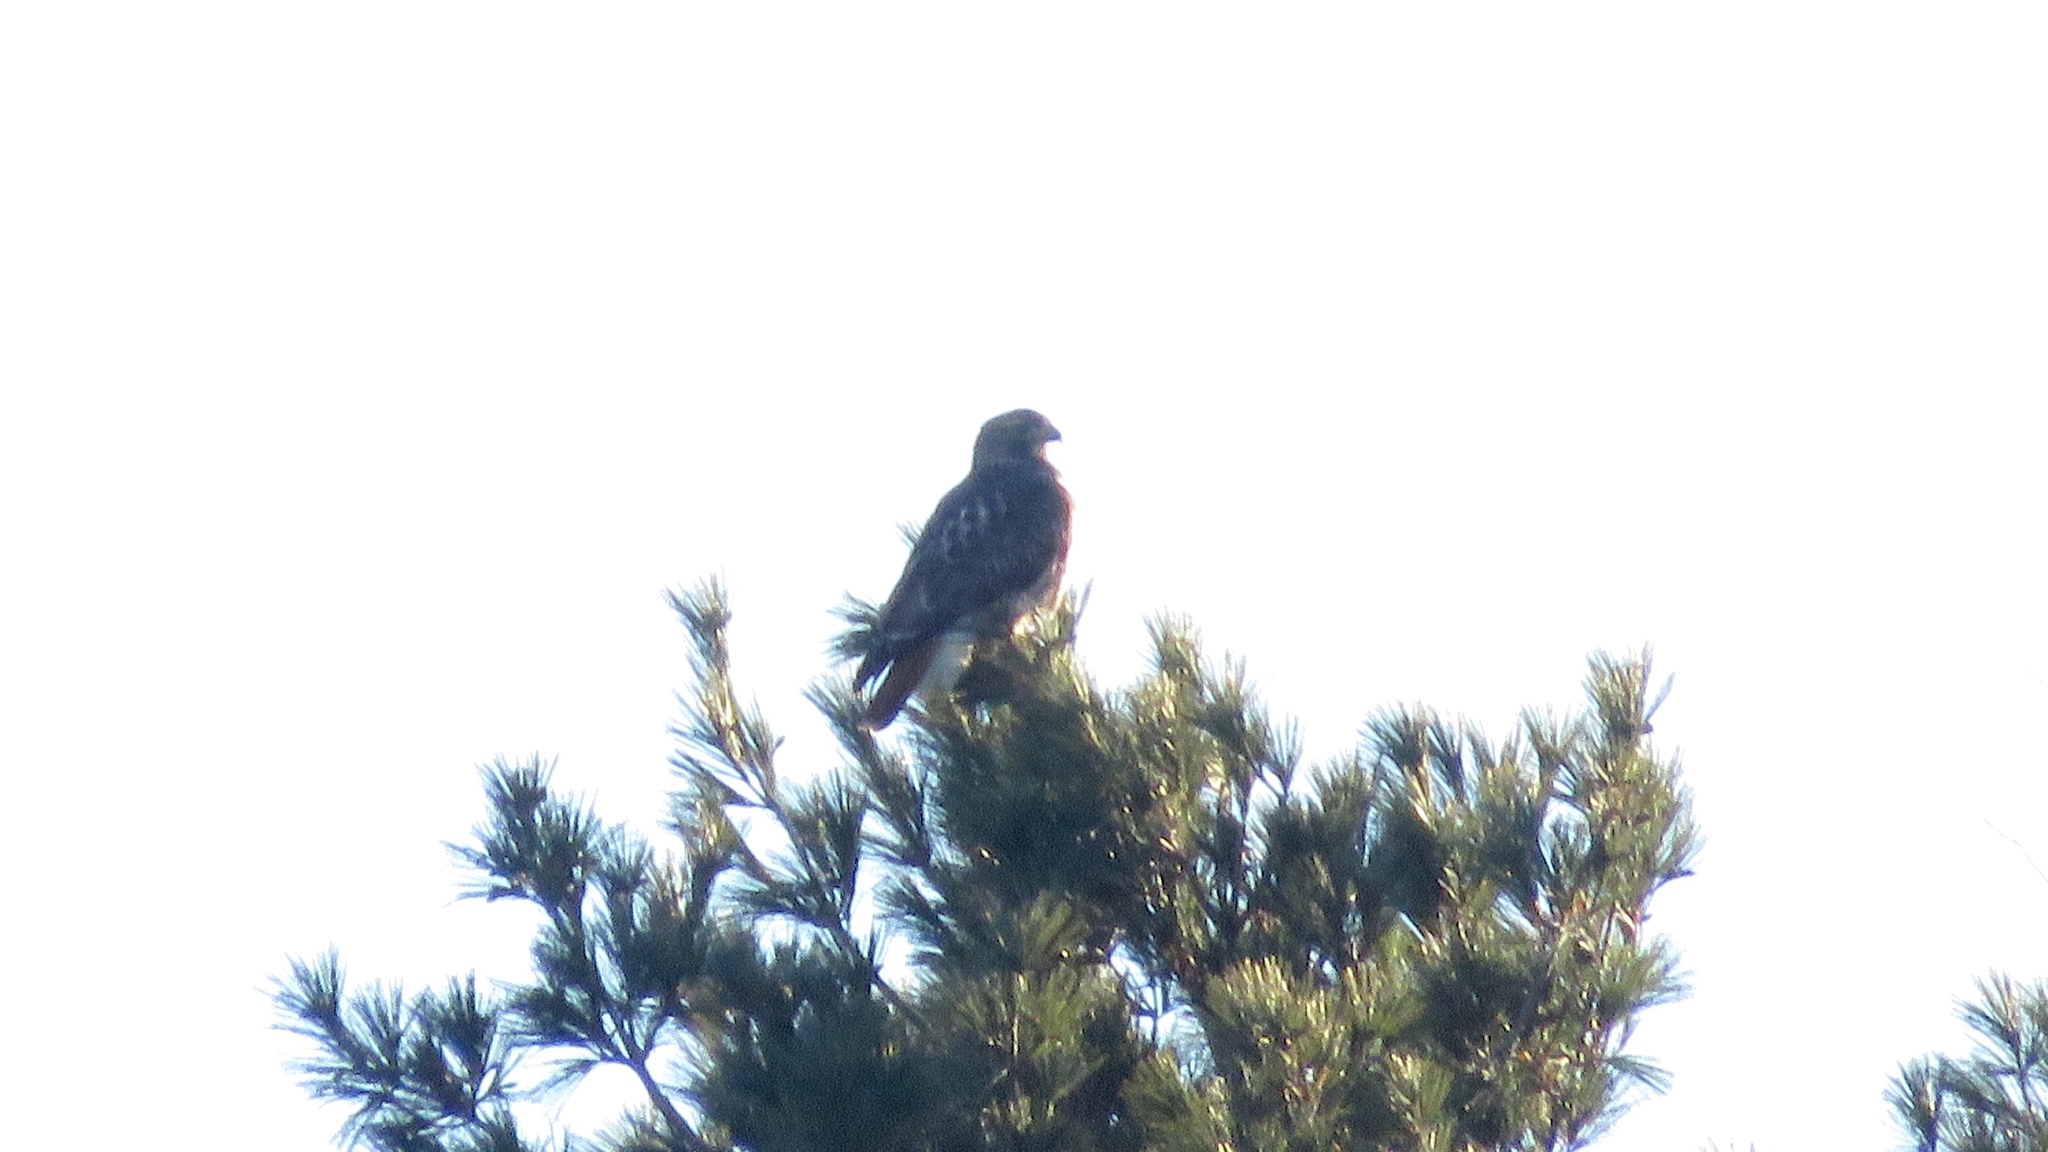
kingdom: Animalia
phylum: Chordata
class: Aves
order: Accipitriformes
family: Accipitridae
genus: Buteo
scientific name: Buteo jamaicensis
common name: Red-tailed hawk
